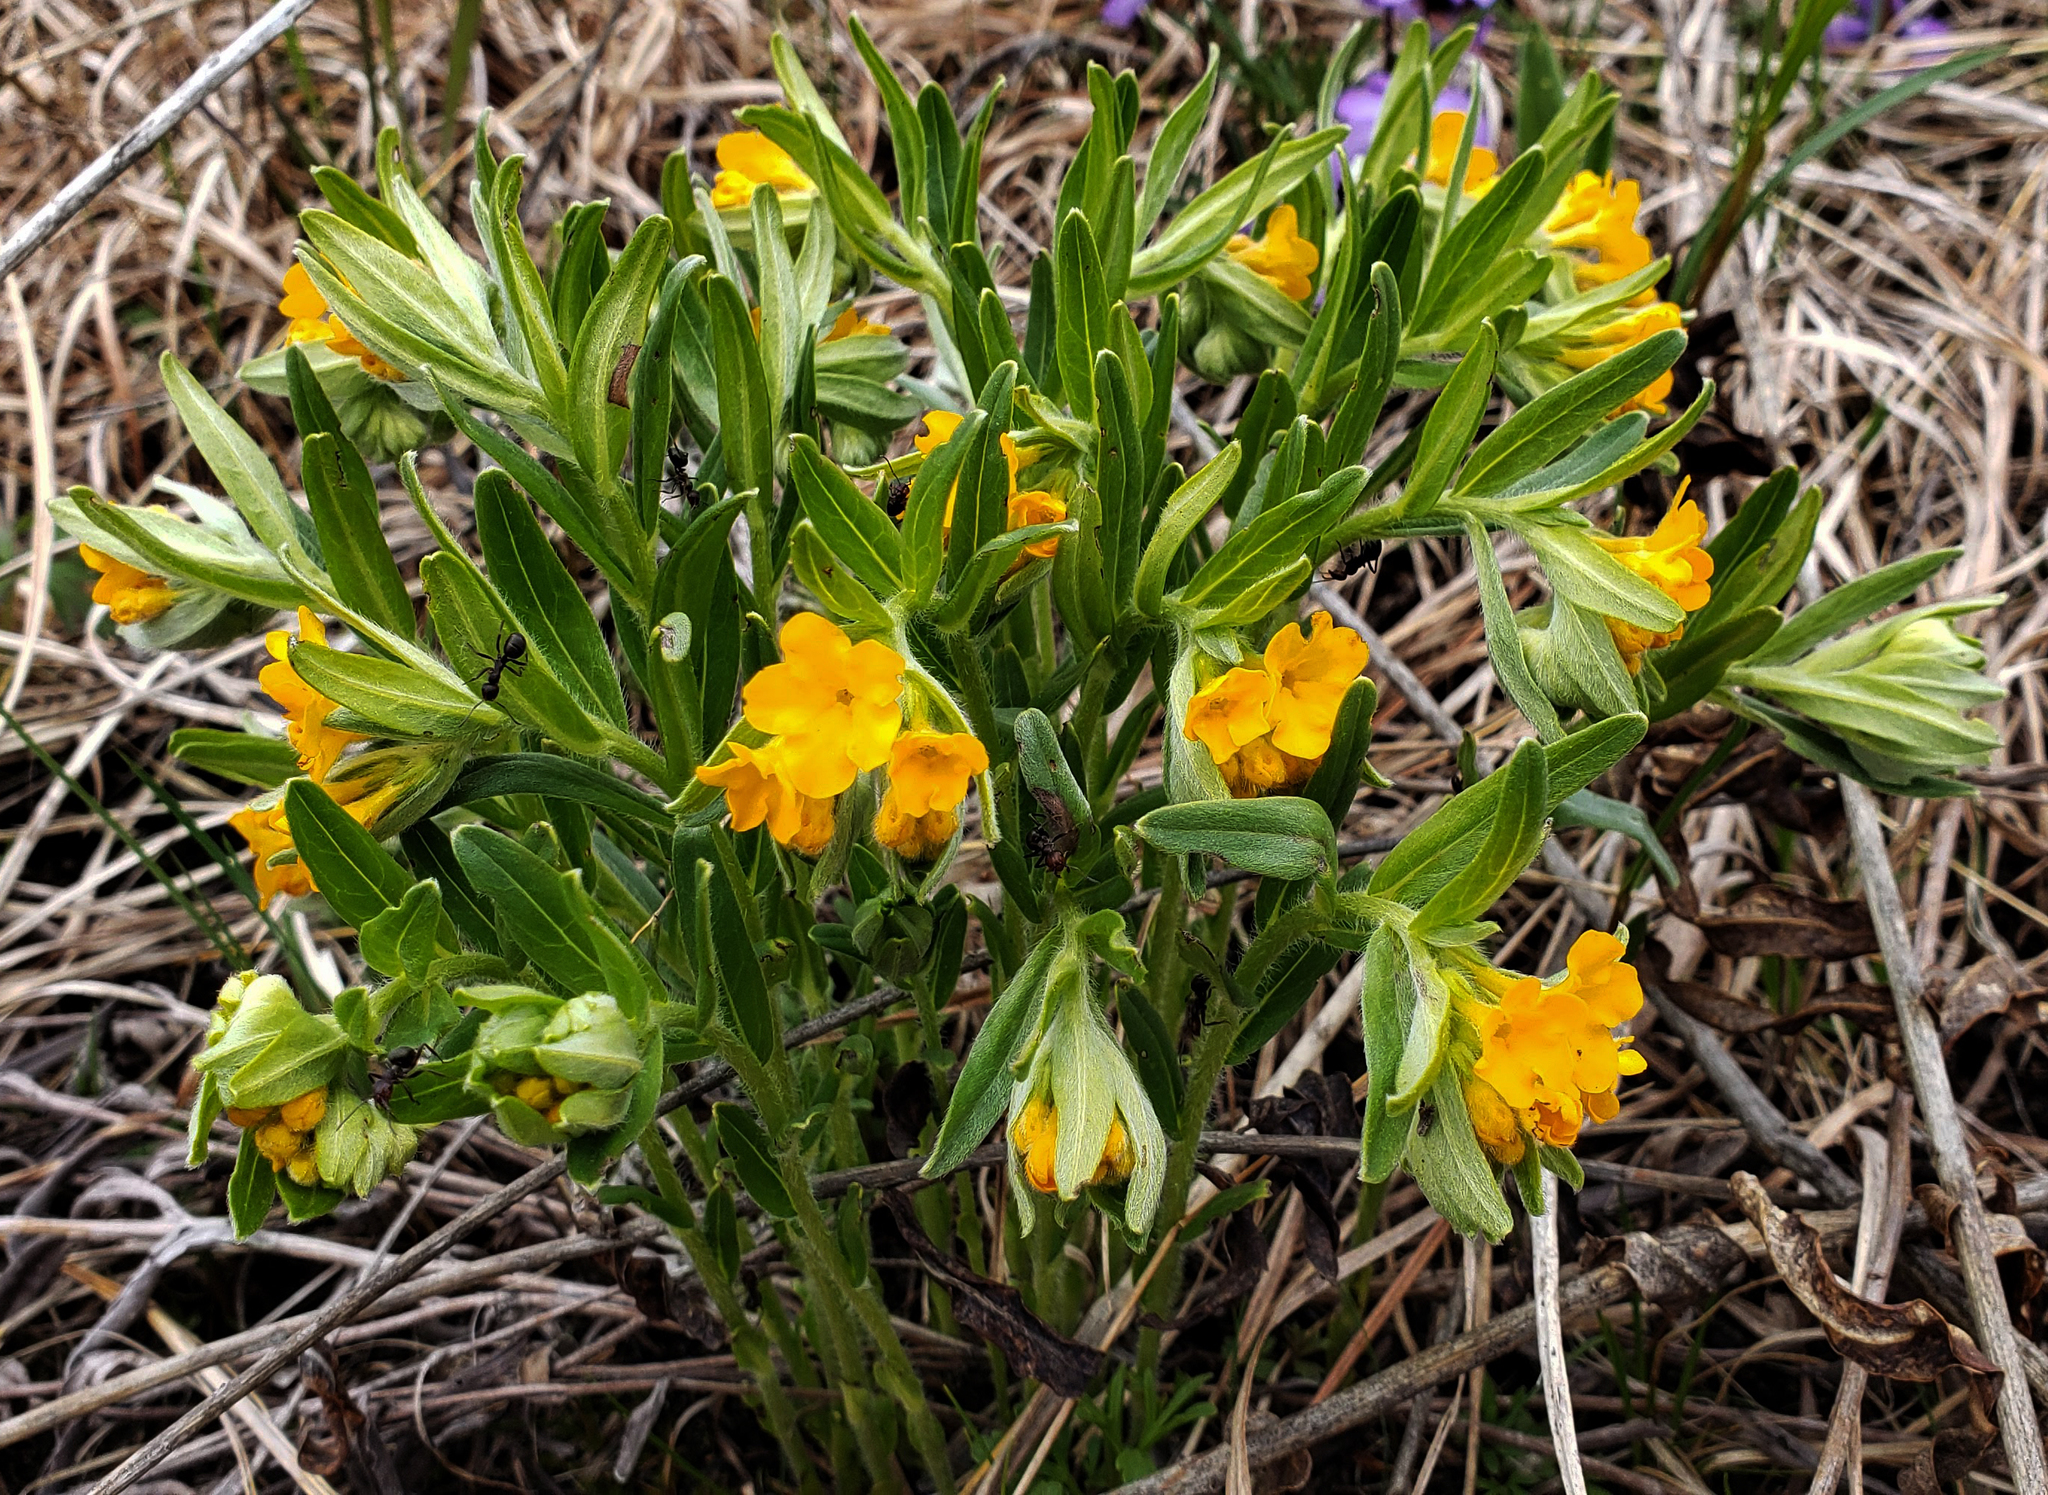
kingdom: Plantae
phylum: Tracheophyta
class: Magnoliopsida
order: Boraginales
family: Boraginaceae
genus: Lithospermum
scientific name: Lithospermum canescens
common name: Hoary puccoon
